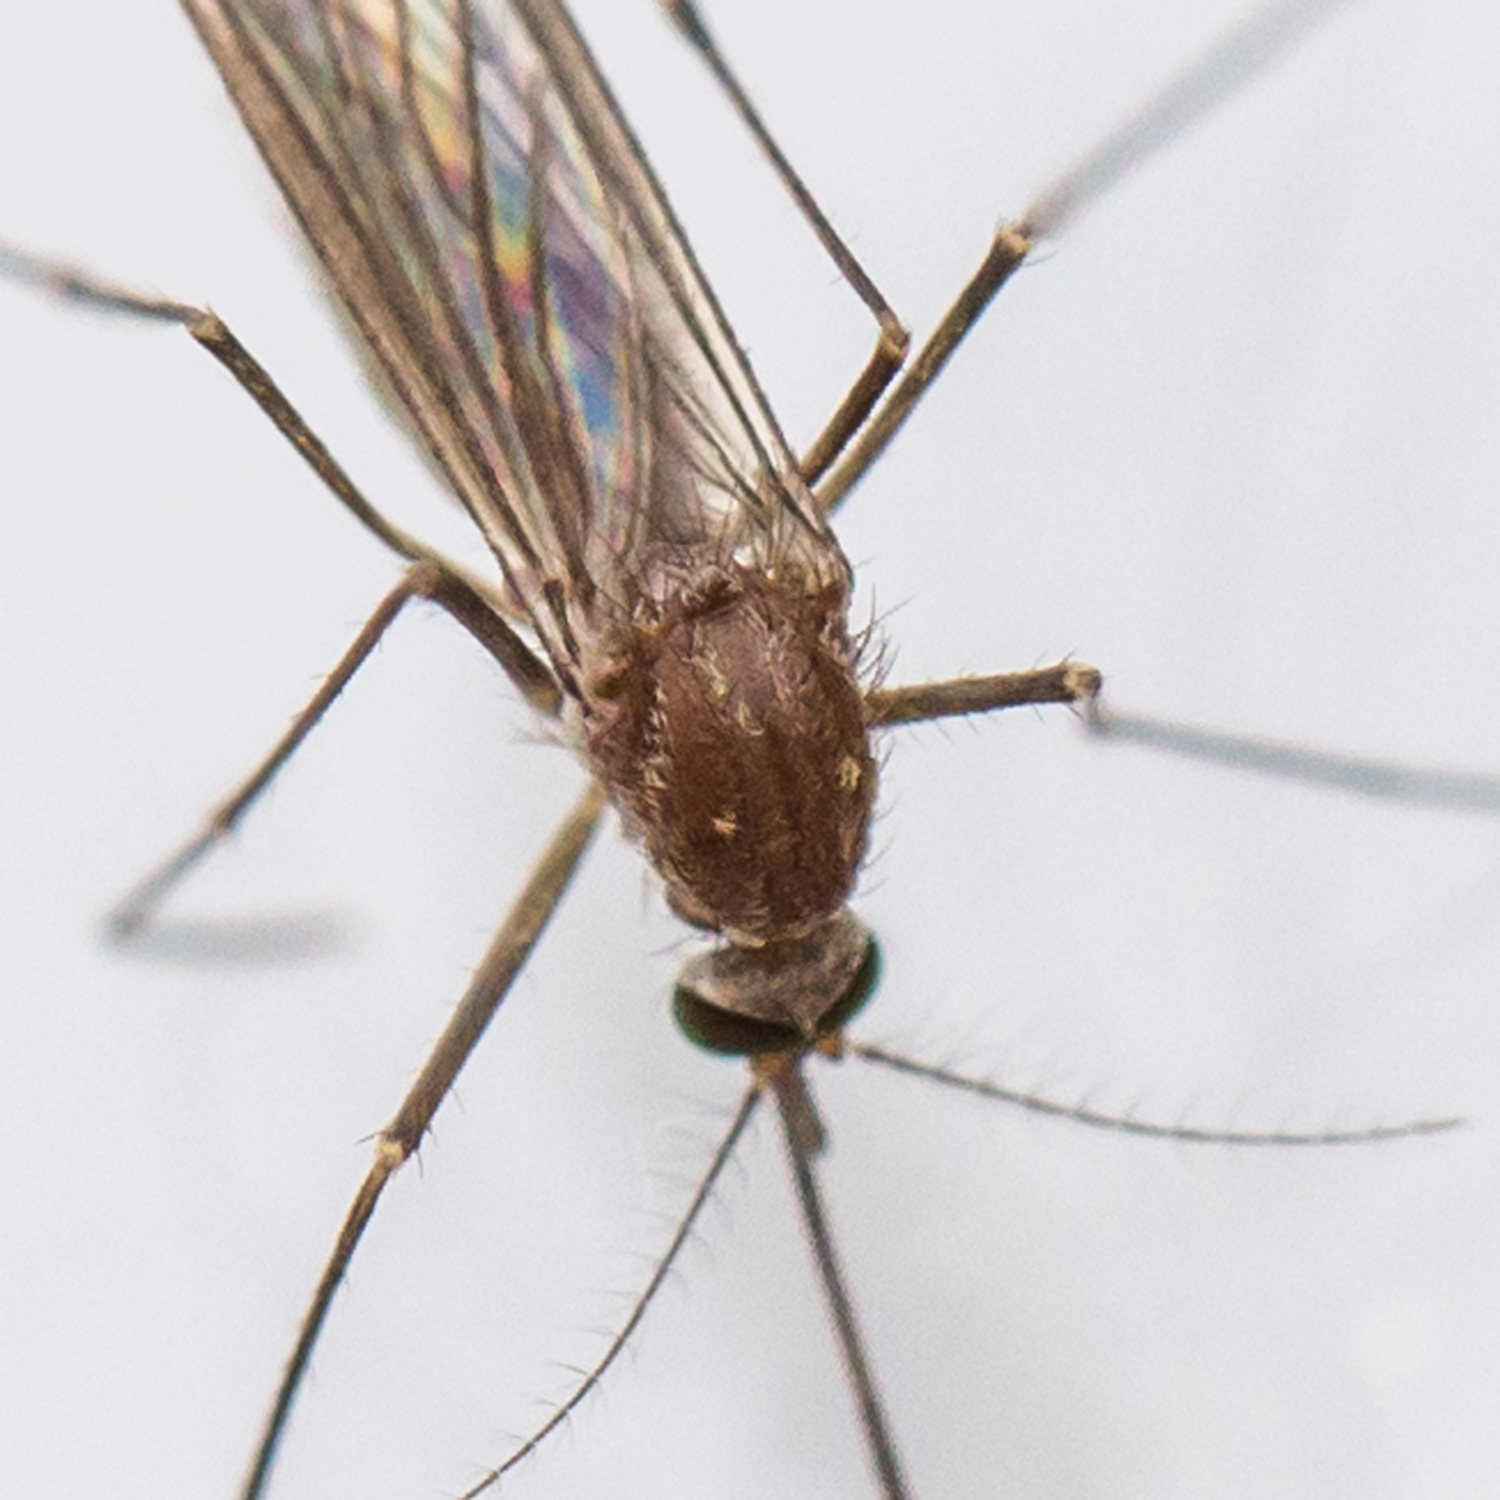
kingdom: Animalia
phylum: Arthropoda
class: Insecta
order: Diptera
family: Culicidae
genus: Culex
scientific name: Culex restuans
